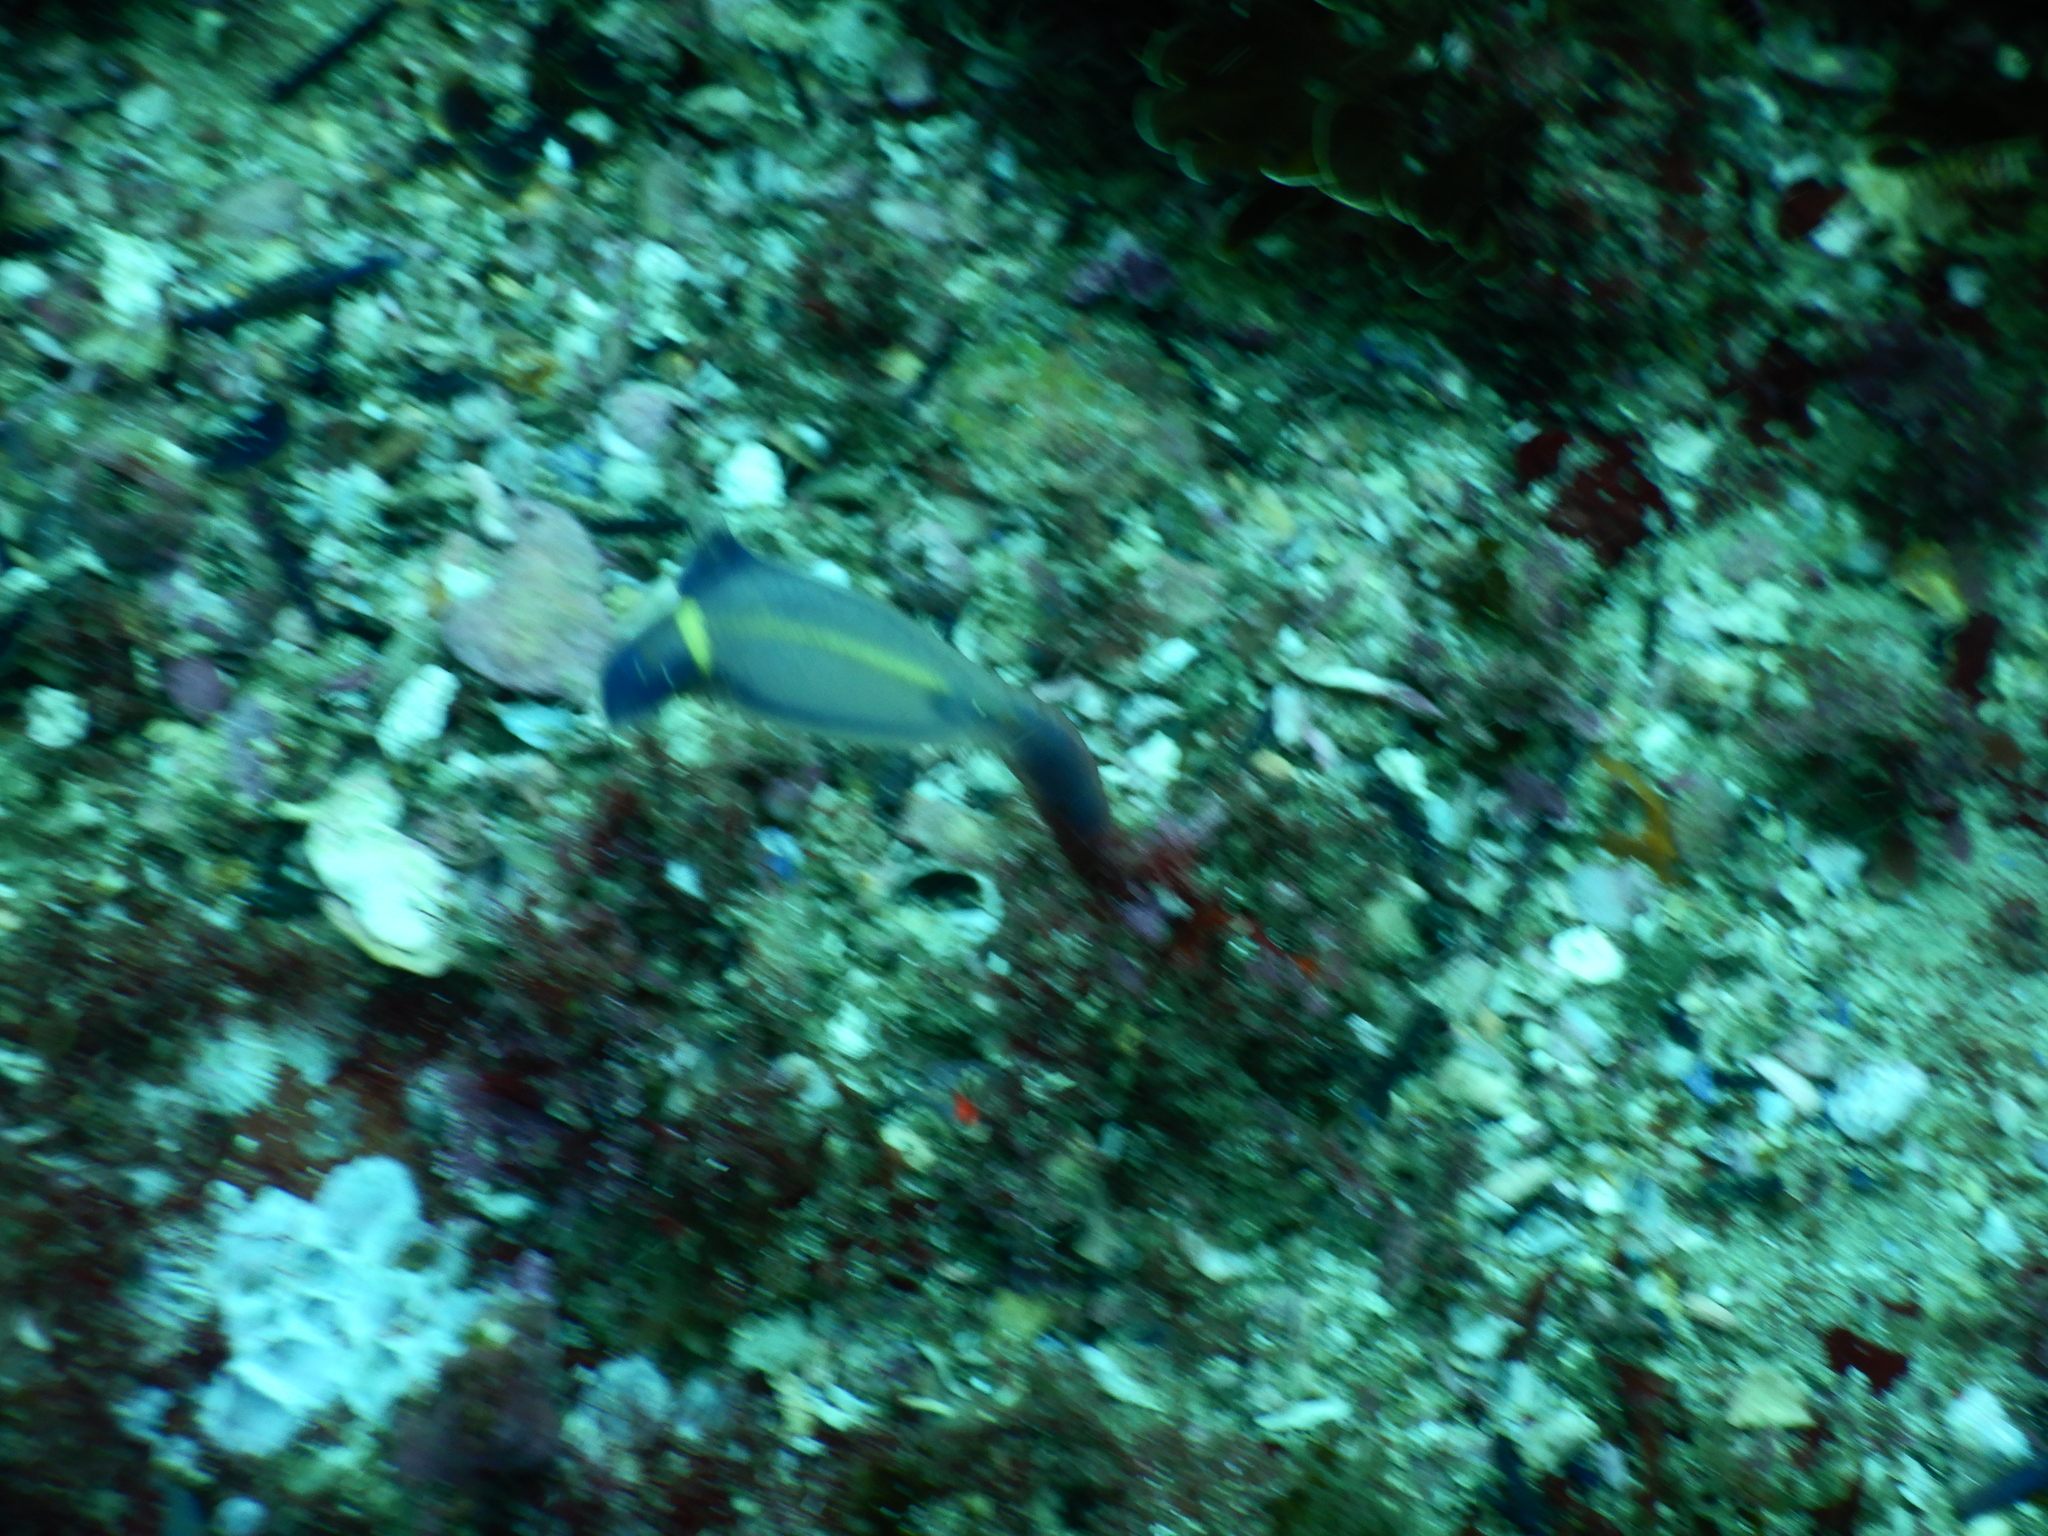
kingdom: Animalia
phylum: Chordata
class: Ascidiacea
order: Aplousobranchia
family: Clavelinidae
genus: Clavelina
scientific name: Clavelina meridionalis
